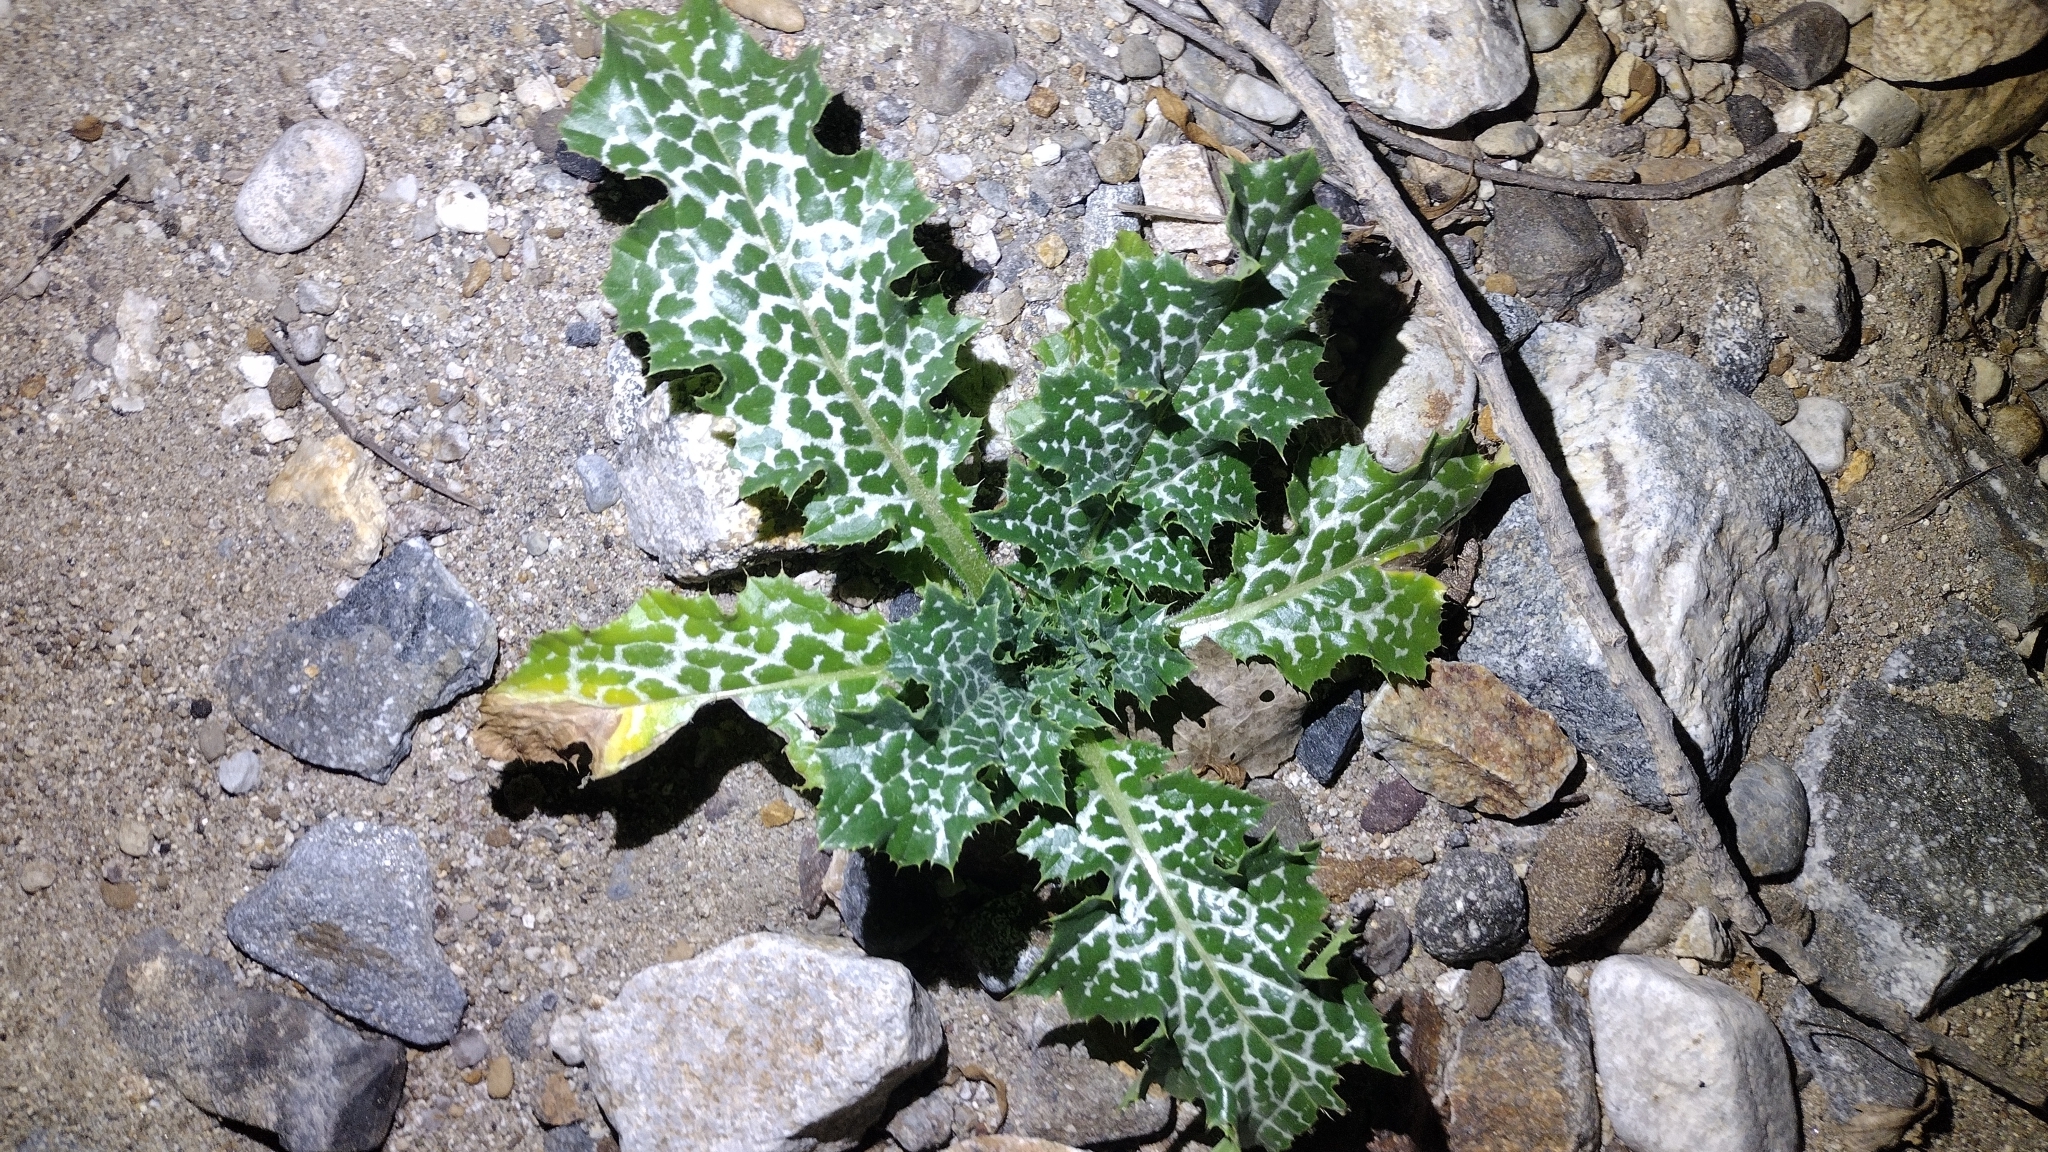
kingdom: Plantae
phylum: Tracheophyta
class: Magnoliopsida
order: Asterales
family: Asteraceae
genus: Silybum
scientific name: Silybum marianum
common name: Milk thistle
